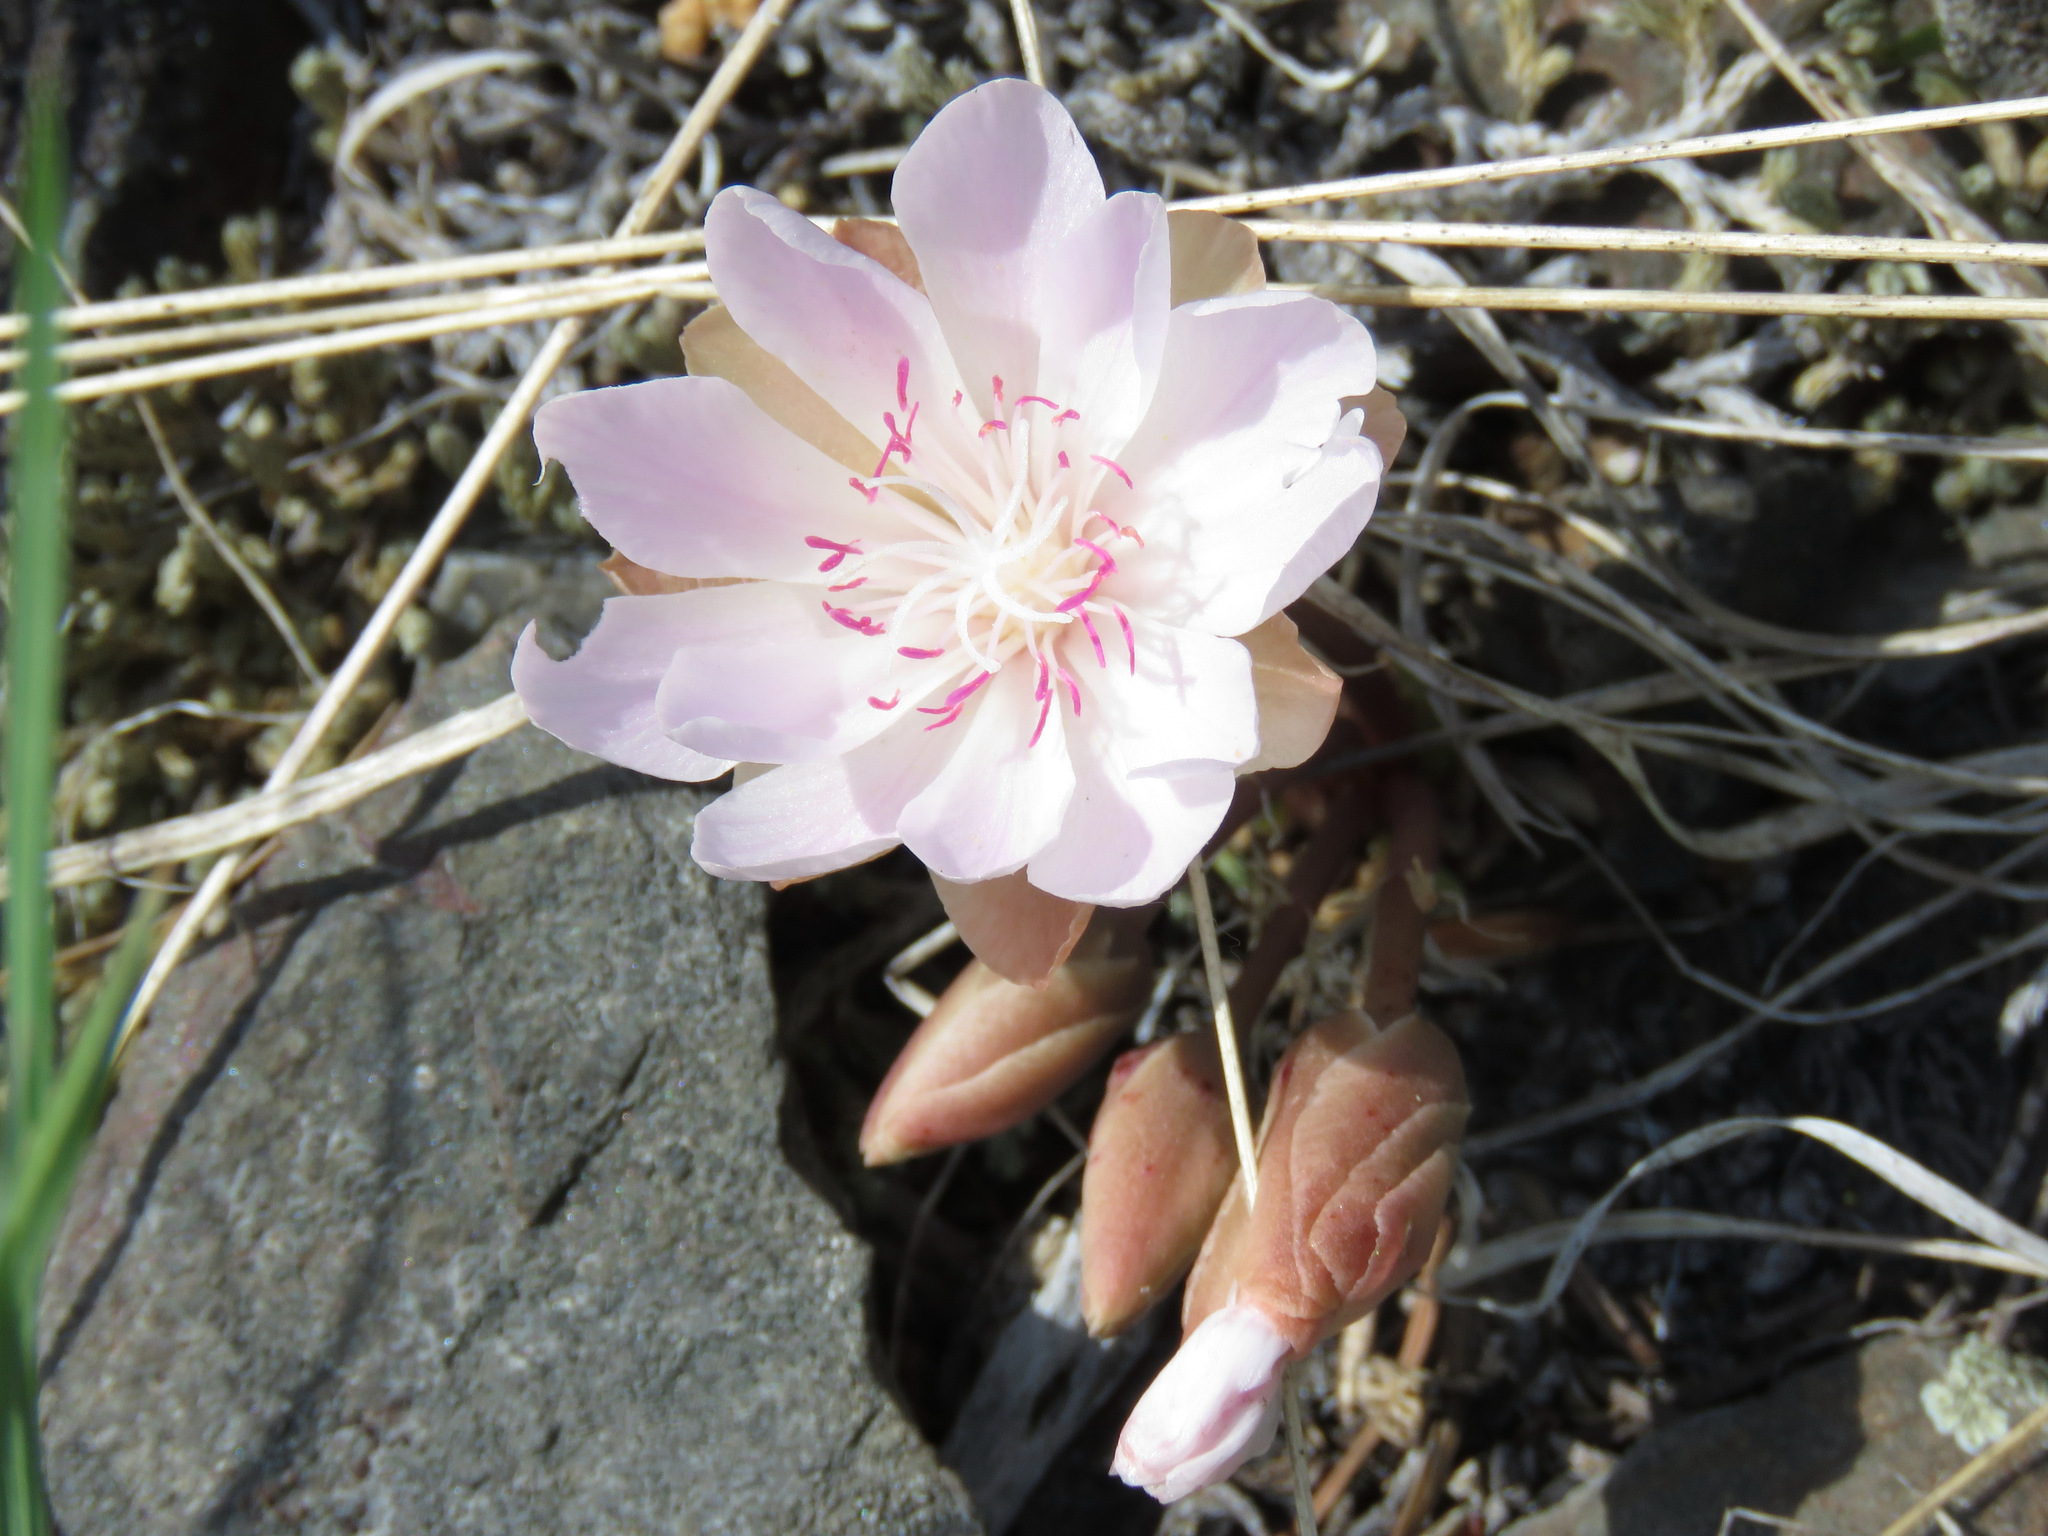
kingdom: Plantae
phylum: Tracheophyta
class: Magnoliopsida
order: Caryophyllales
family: Montiaceae
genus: Lewisia
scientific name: Lewisia rediviva
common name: Bitter-root
